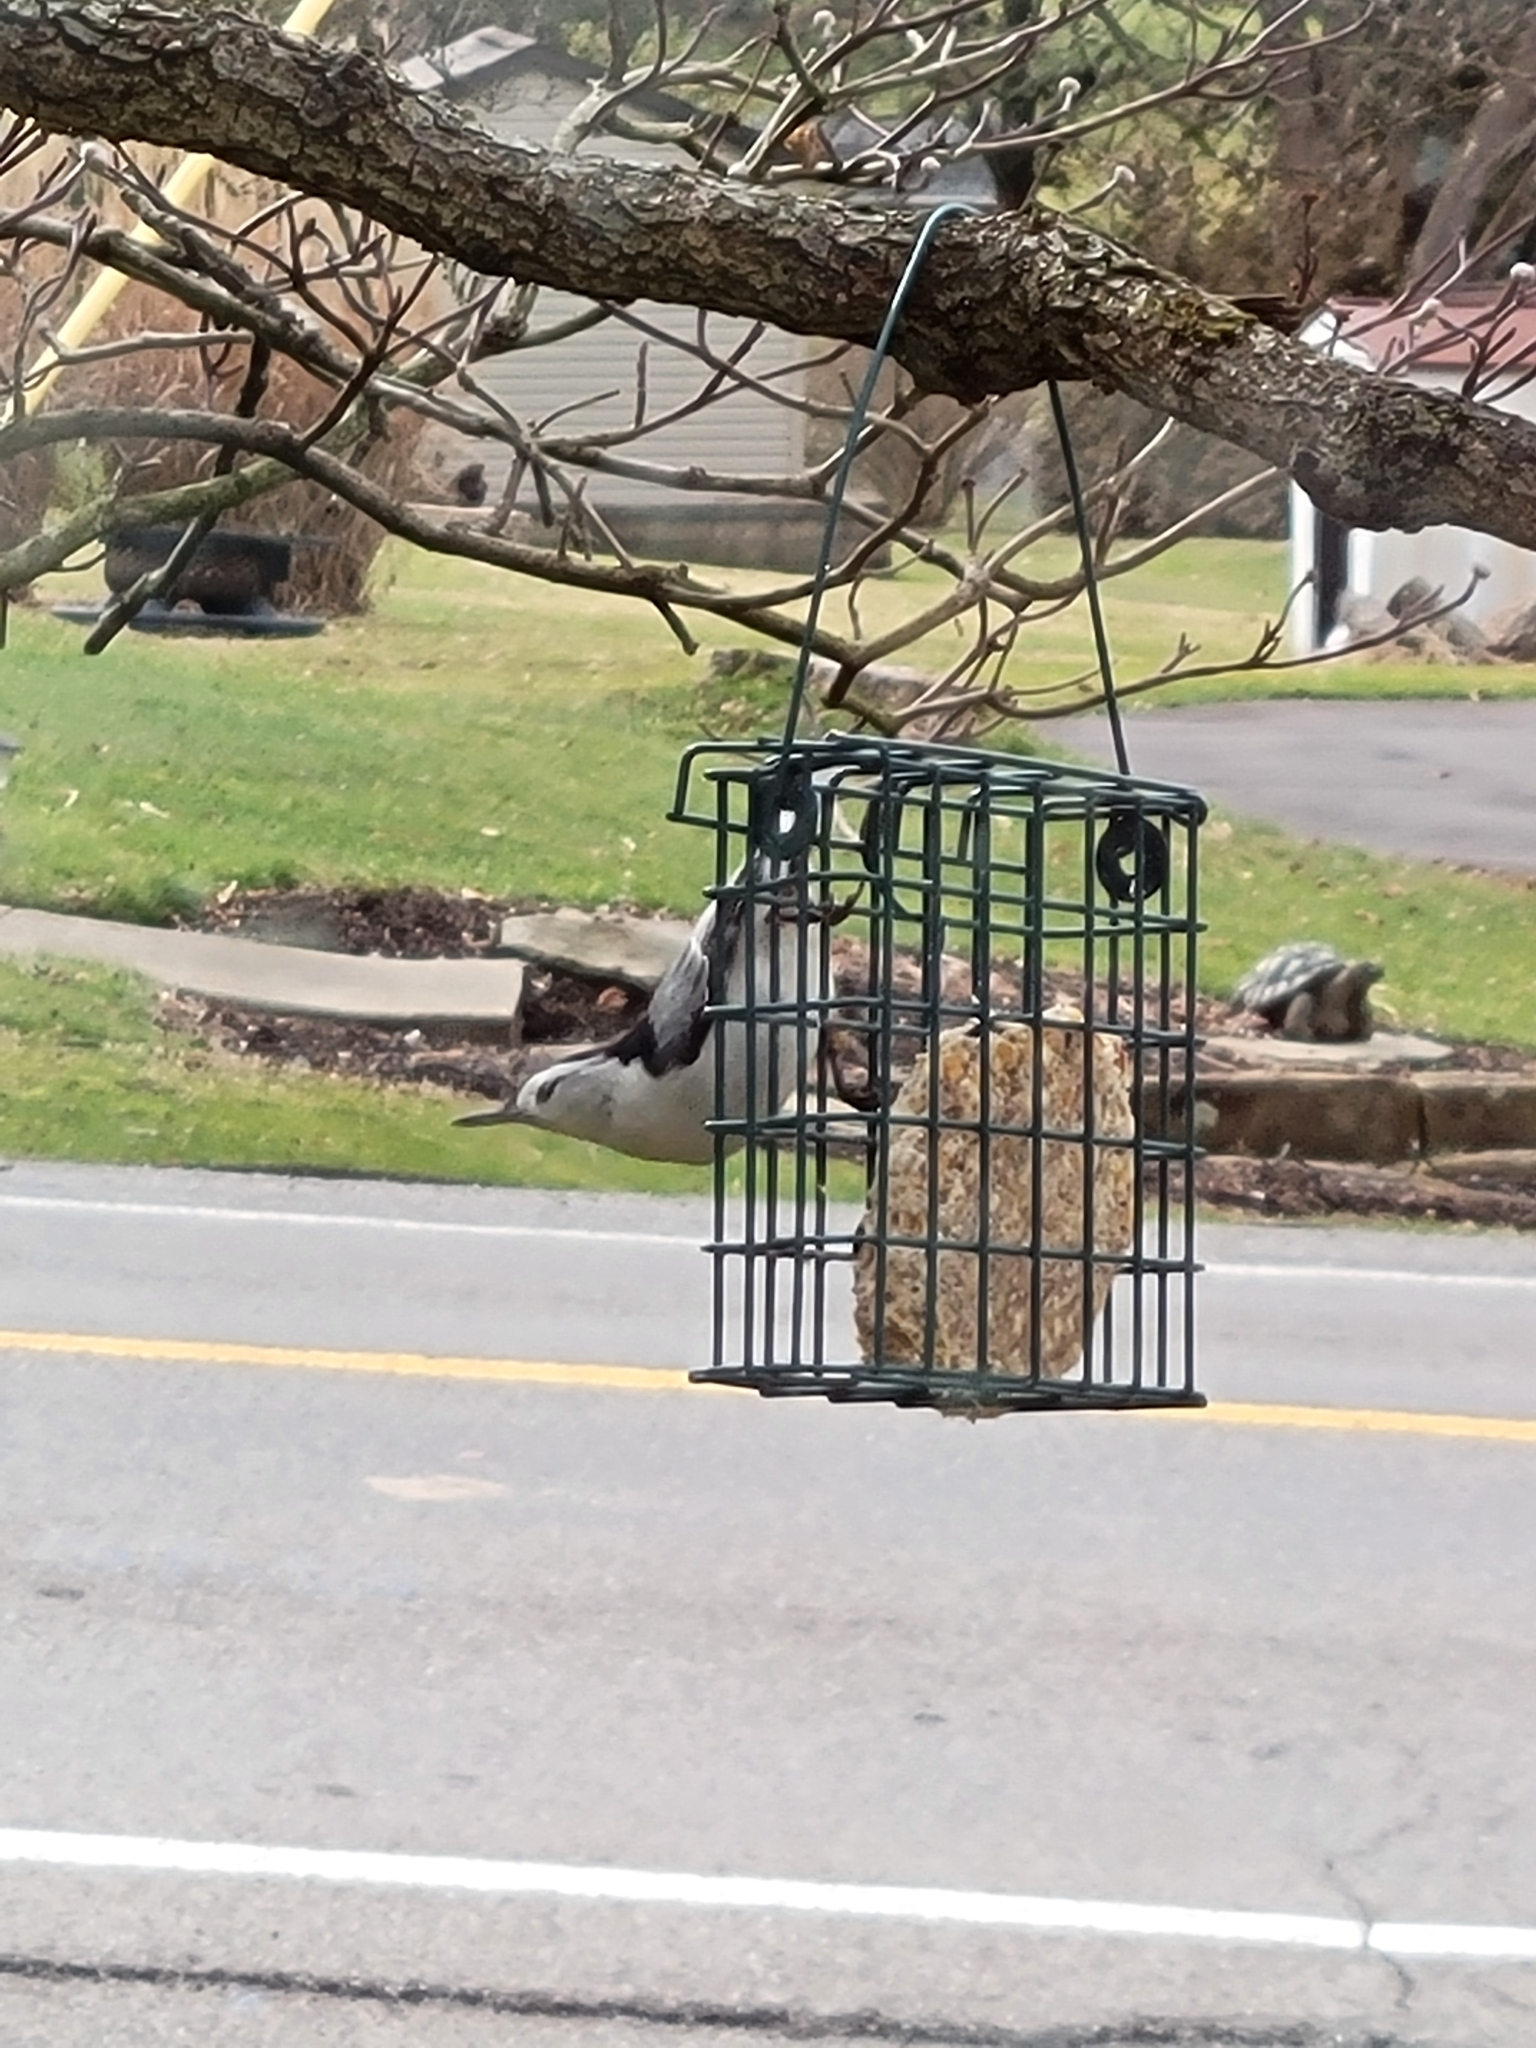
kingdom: Animalia
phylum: Chordata
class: Aves
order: Passeriformes
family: Sittidae
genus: Sitta
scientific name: Sitta carolinensis
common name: White-breasted nuthatch
